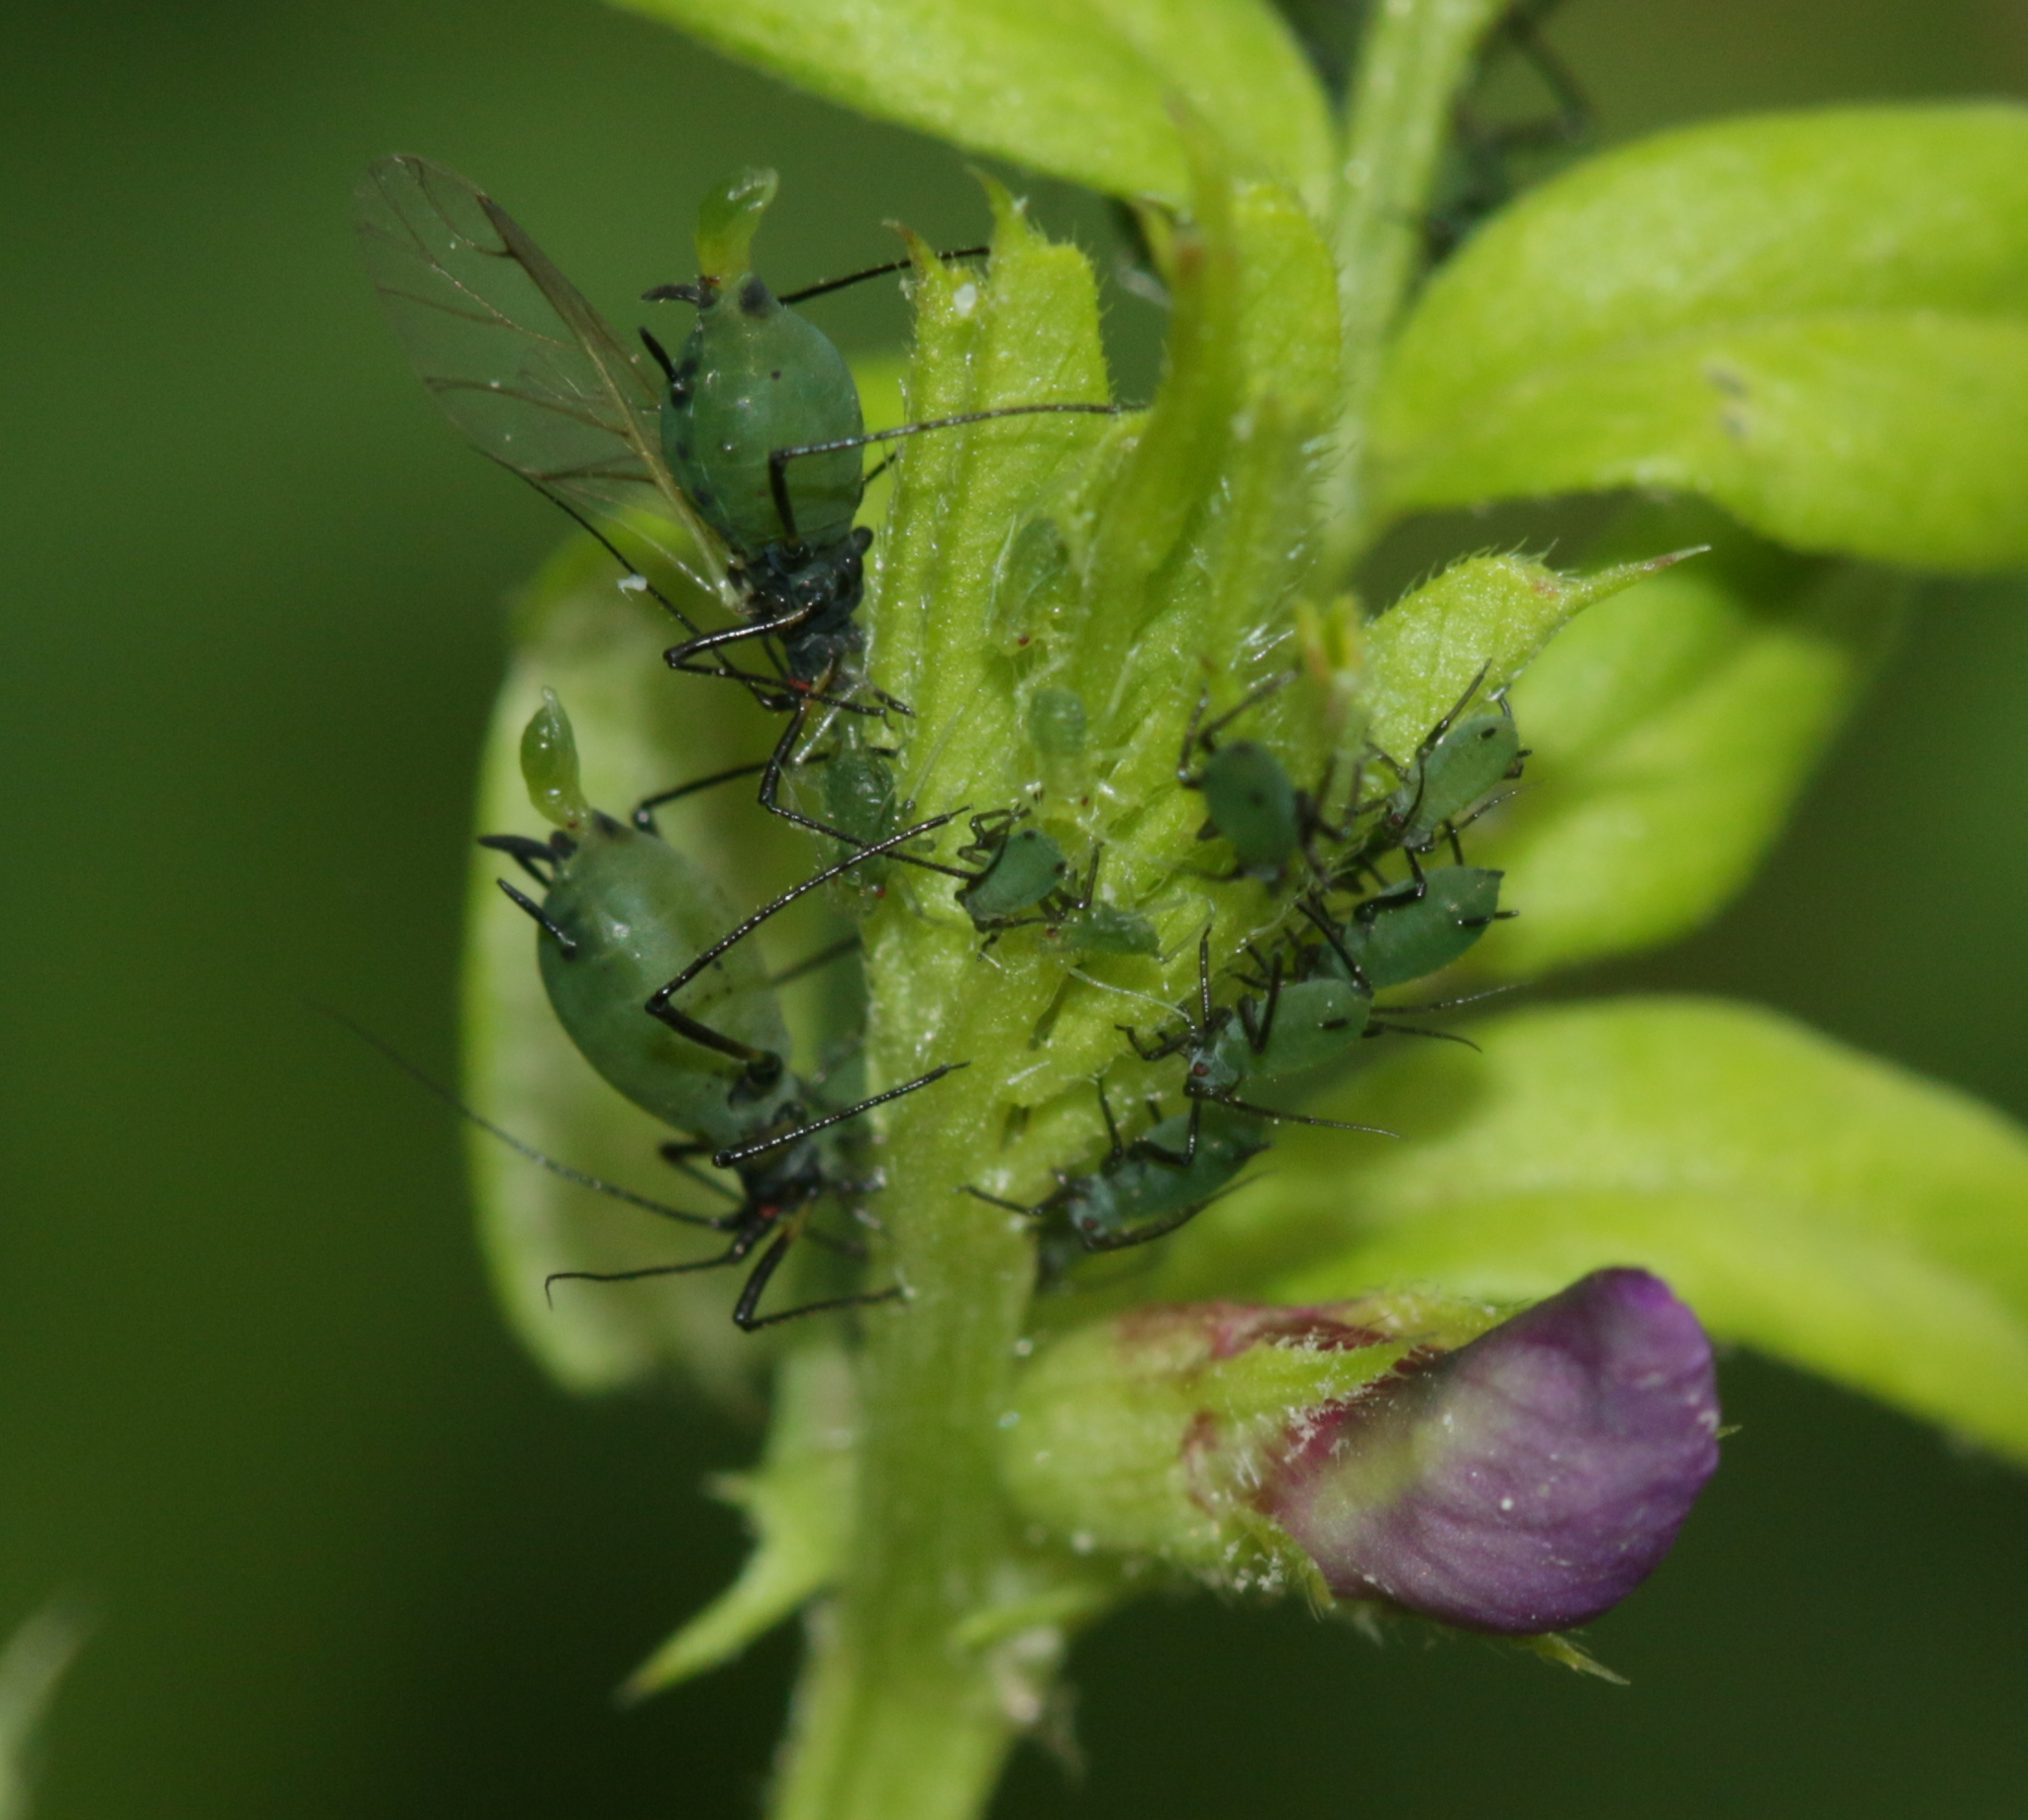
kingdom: Animalia
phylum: Arthropoda
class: Insecta
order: Hemiptera
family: Aphididae
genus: Megoura
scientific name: Megoura viciae
